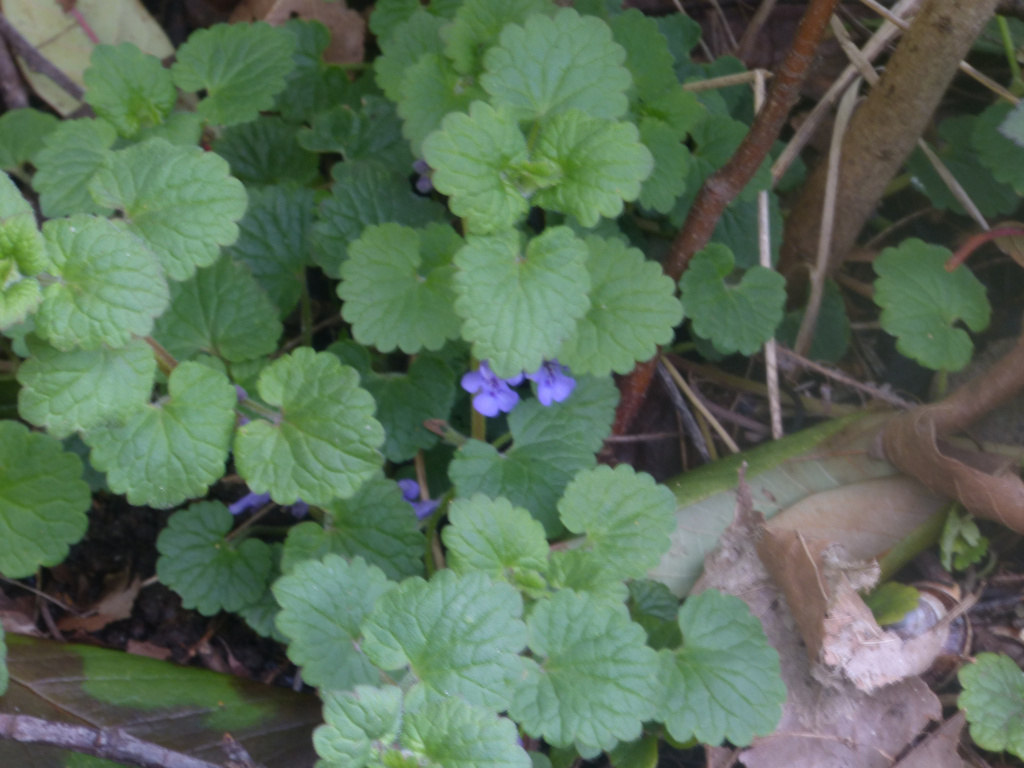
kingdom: Plantae
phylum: Tracheophyta
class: Magnoliopsida
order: Lamiales
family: Lamiaceae
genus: Glechoma
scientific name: Glechoma hederacea
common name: Ground ivy
